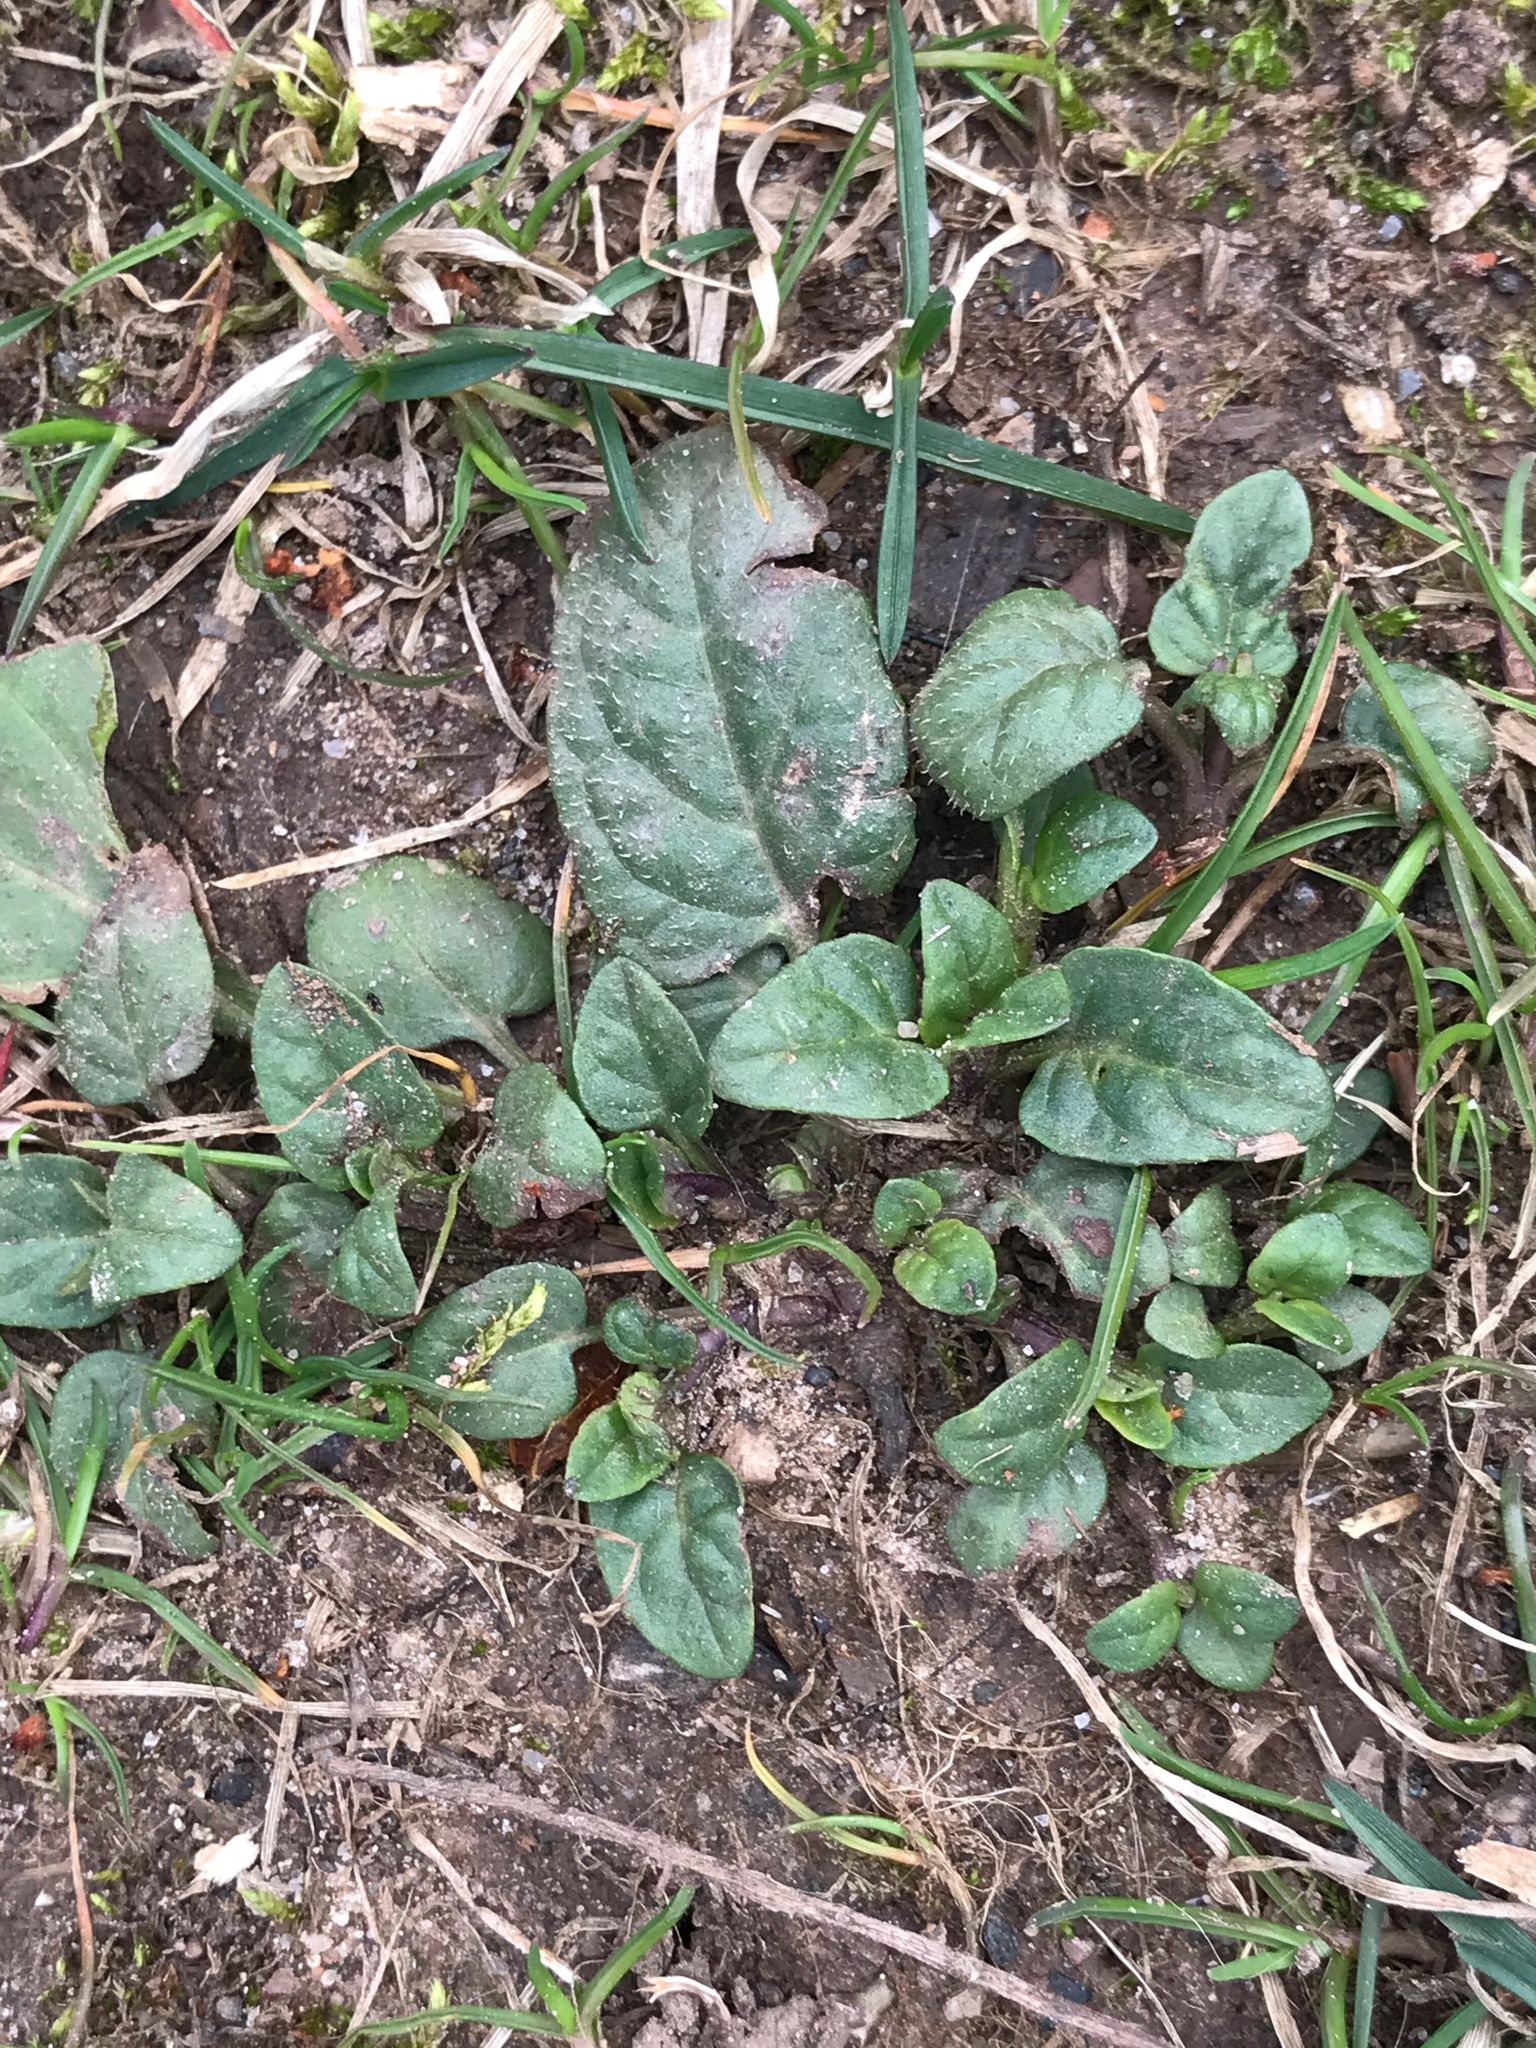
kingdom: Plantae
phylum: Tracheophyta
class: Magnoliopsida
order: Lamiales
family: Lamiaceae
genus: Prunella
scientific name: Prunella vulgaris
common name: Heal-all
